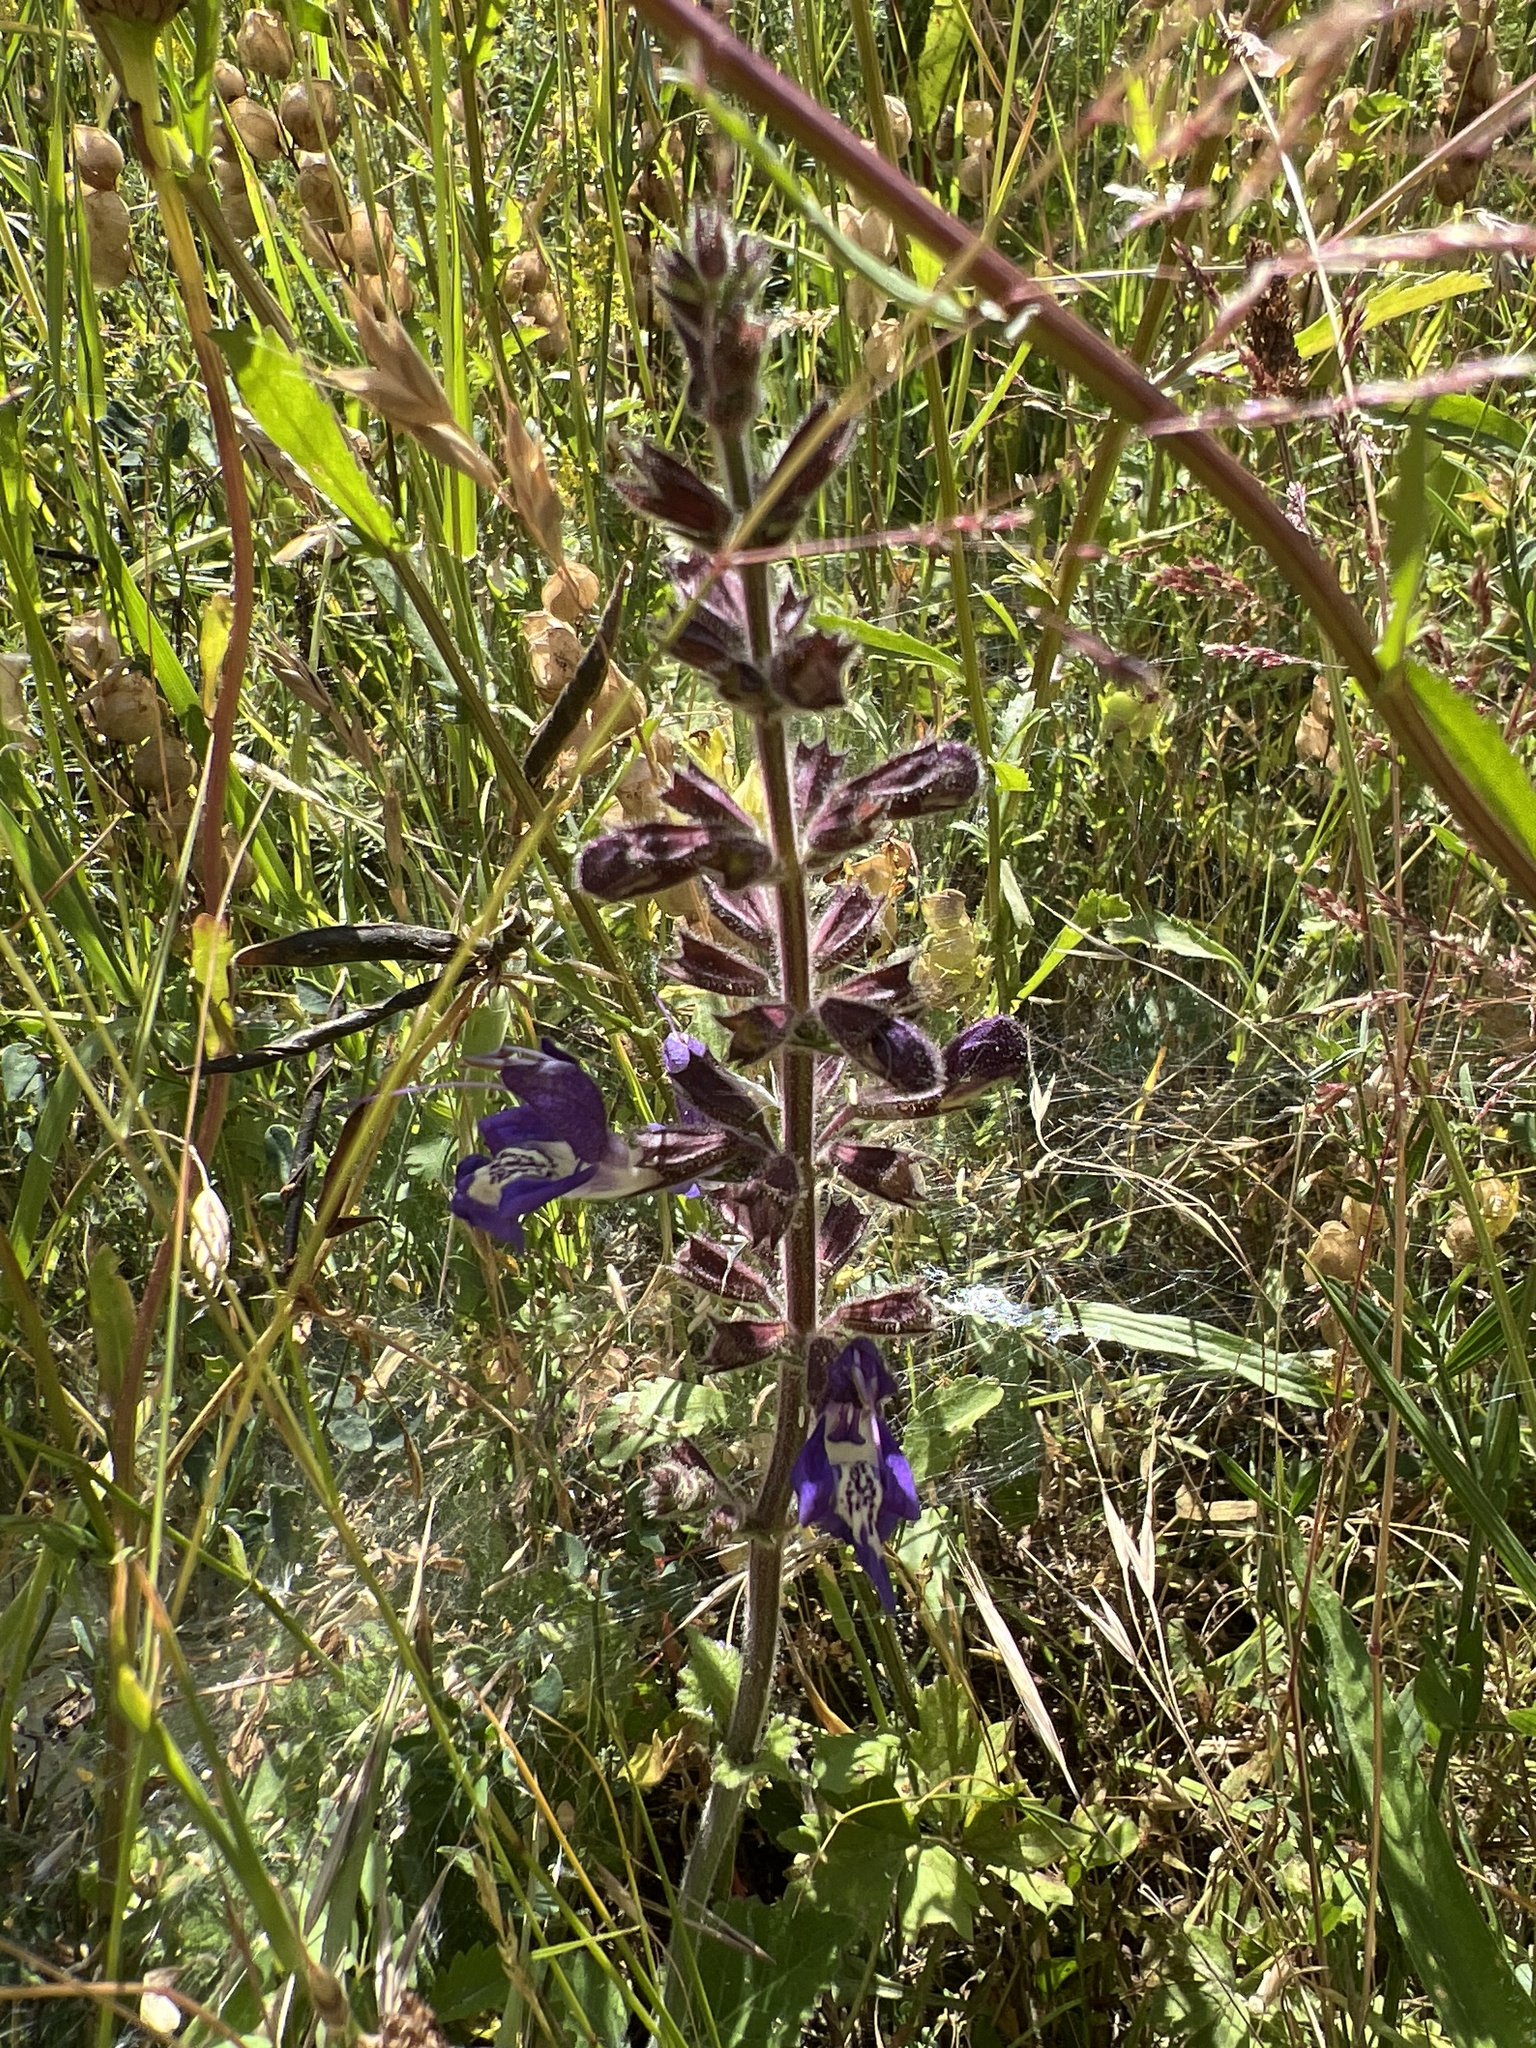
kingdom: Plantae
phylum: Tracheophyta
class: Magnoliopsida
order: Lamiales
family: Lamiaceae
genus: Salvia
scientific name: Salvia forskaehlei
